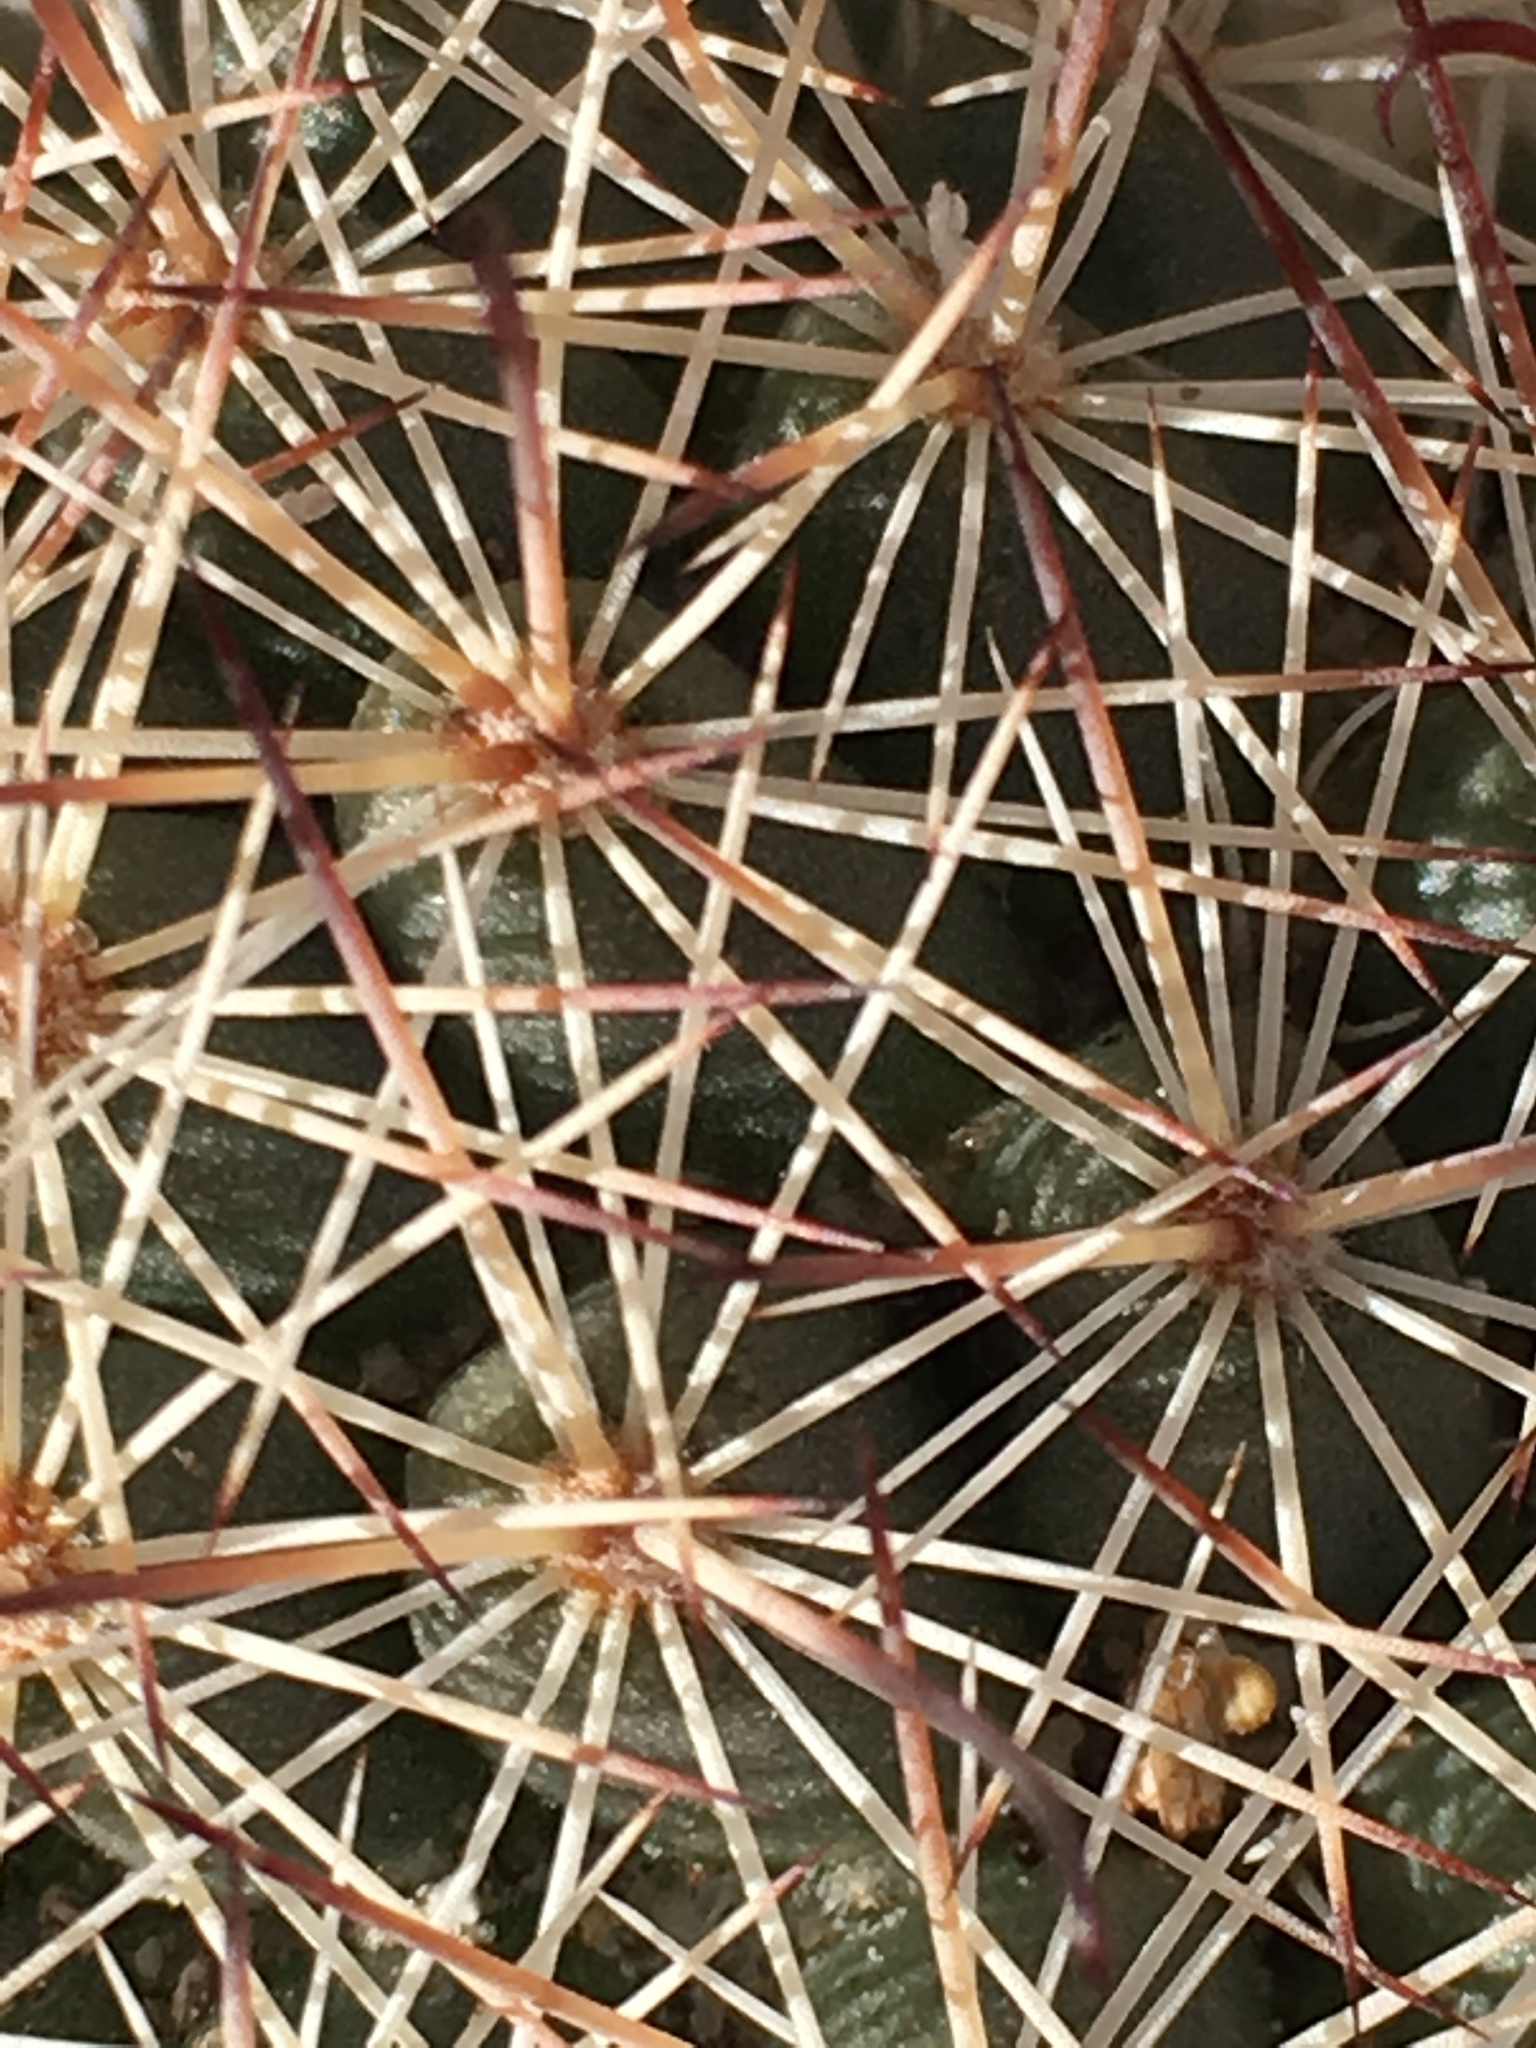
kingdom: Plantae
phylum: Tracheophyta
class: Magnoliopsida
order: Caryophyllales
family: Cactaceae
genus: Cochemiea
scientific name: Cochemiea dioica
